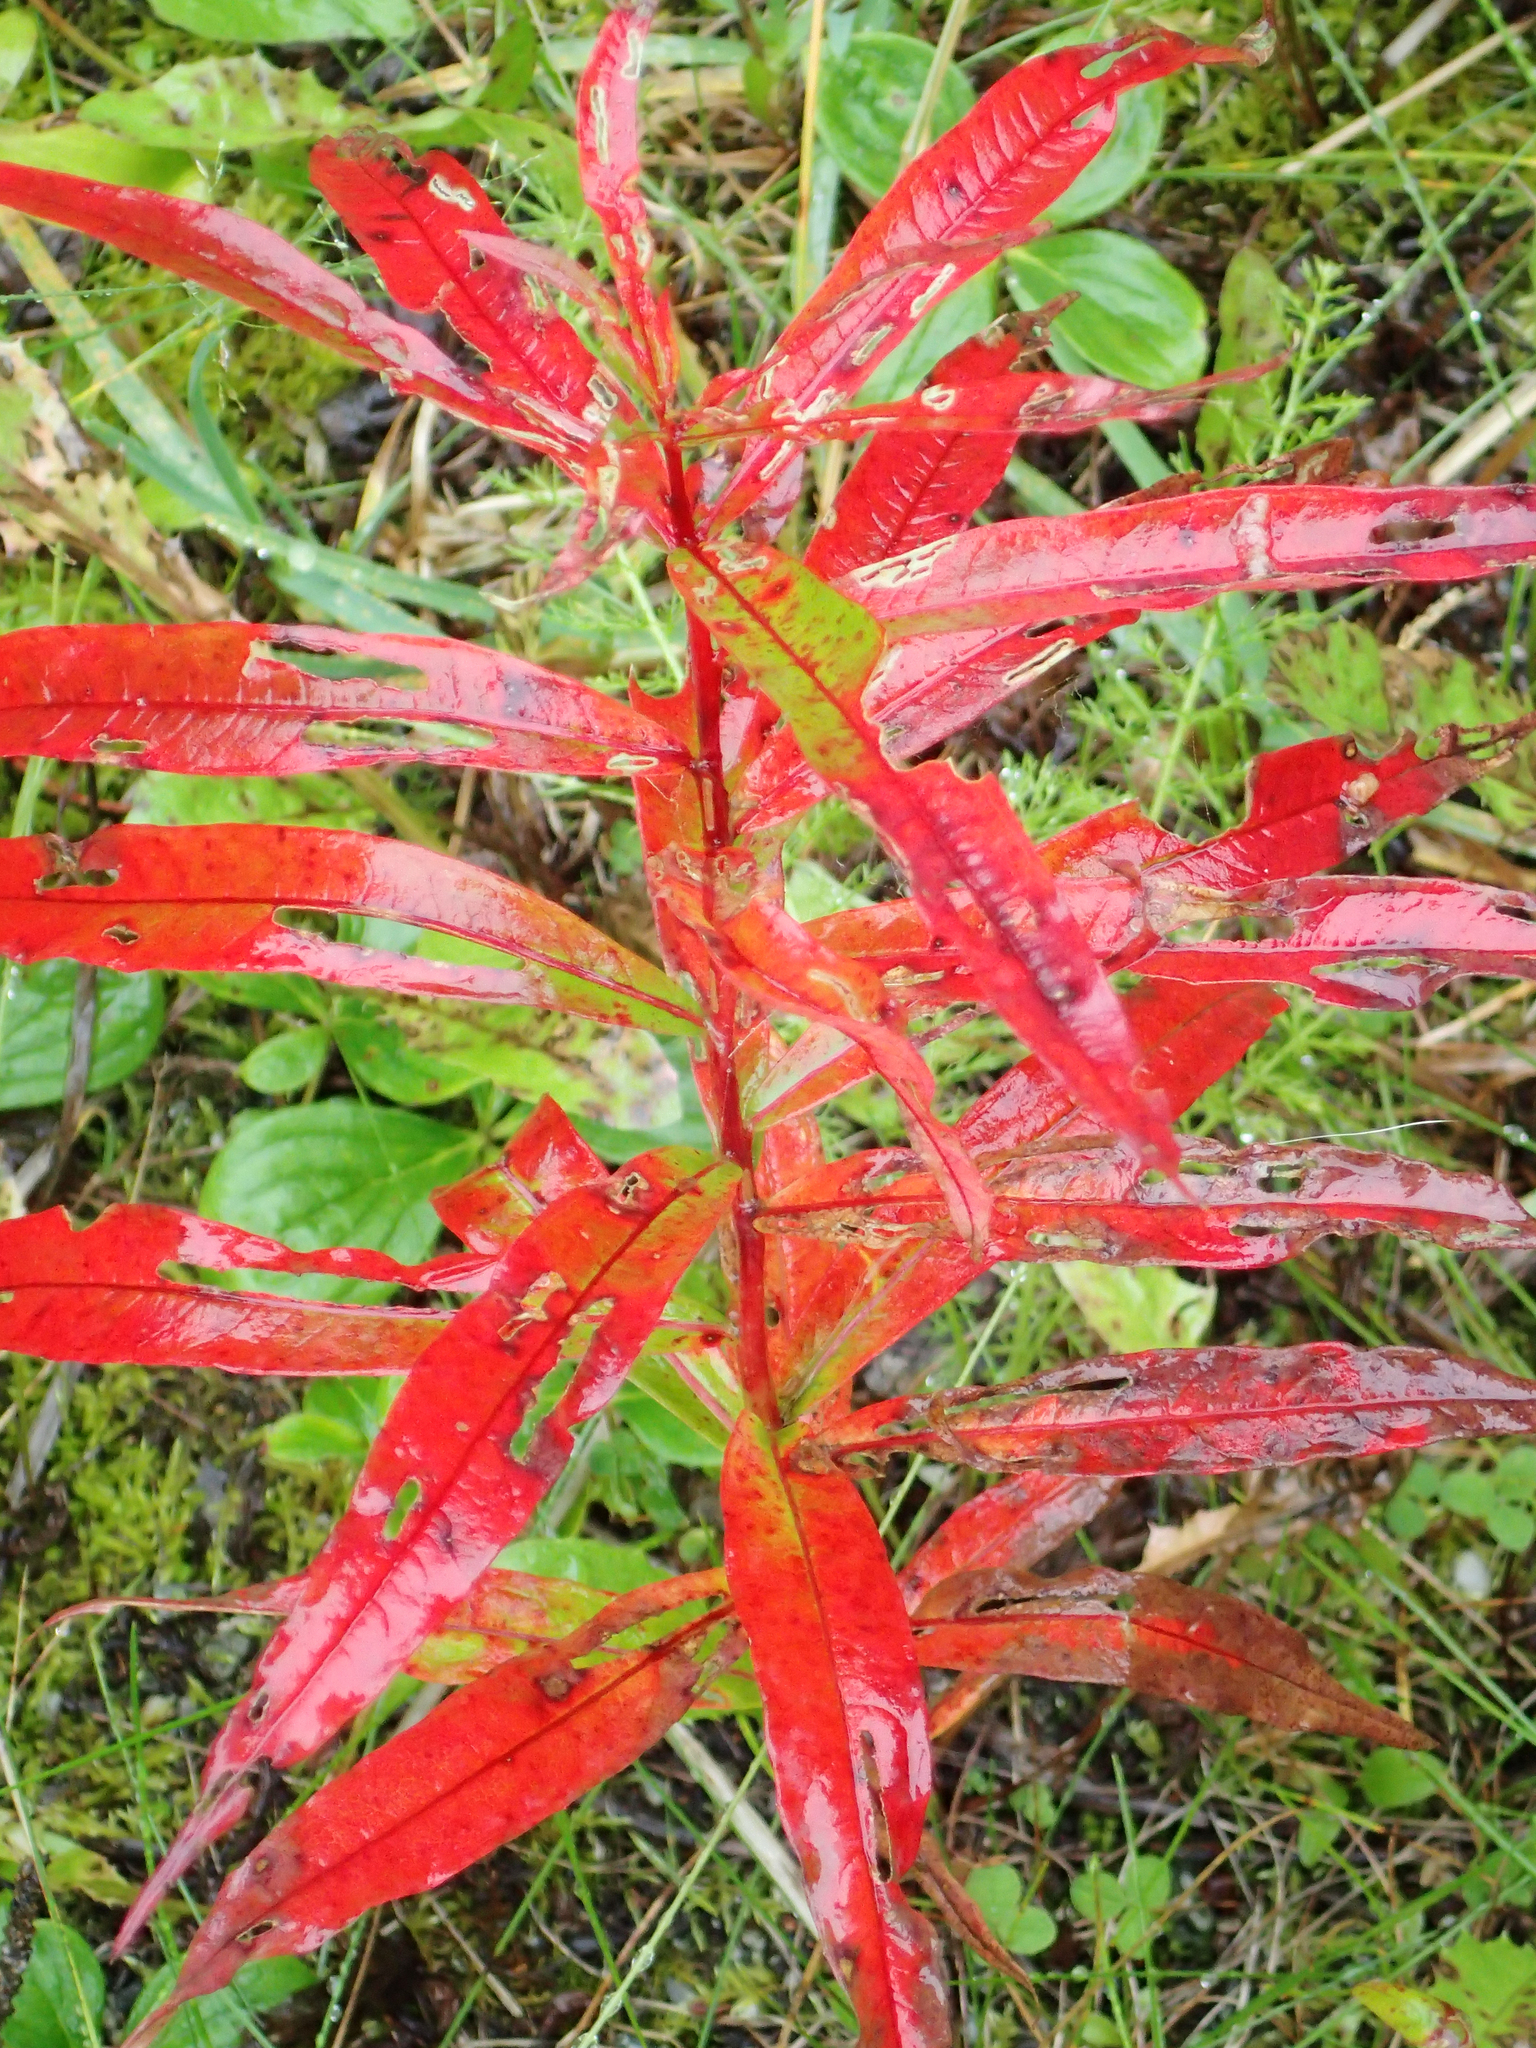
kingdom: Plantae
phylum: Tracheophyta
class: Magnoliopsida
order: Myrtales
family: Onagraceae
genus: Chamaenerion
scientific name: Chamaenerion angustifolium
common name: Fireweed
